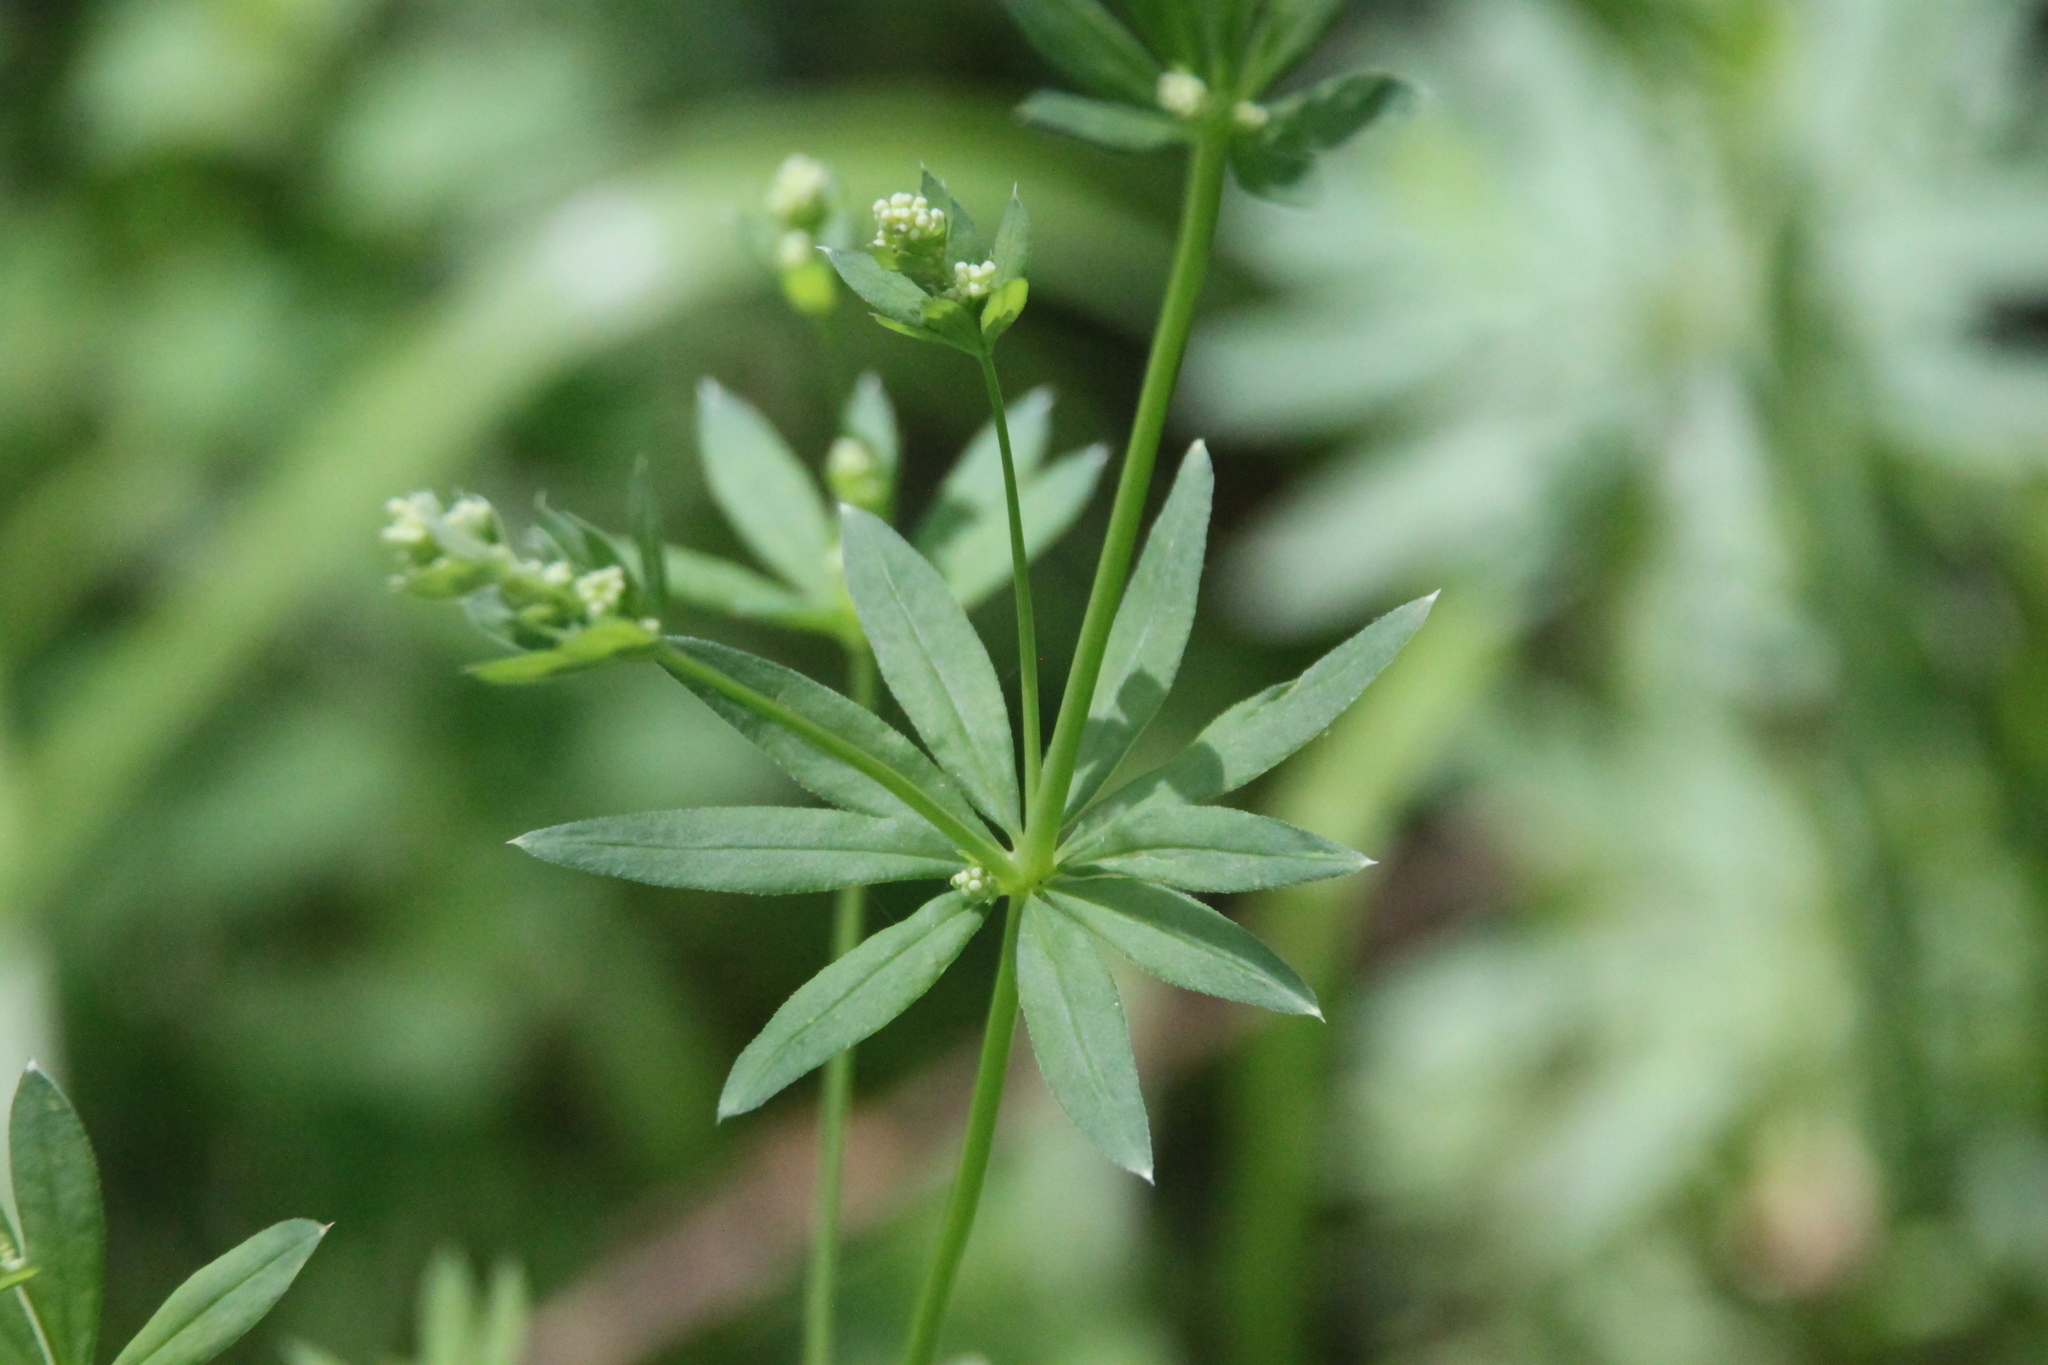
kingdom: Plantae
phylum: Tracheophyta
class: Magnoliopsida
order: Gentianales
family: Rubiaceae
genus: Galium
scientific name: Galium intermedium
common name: Bedstraw
